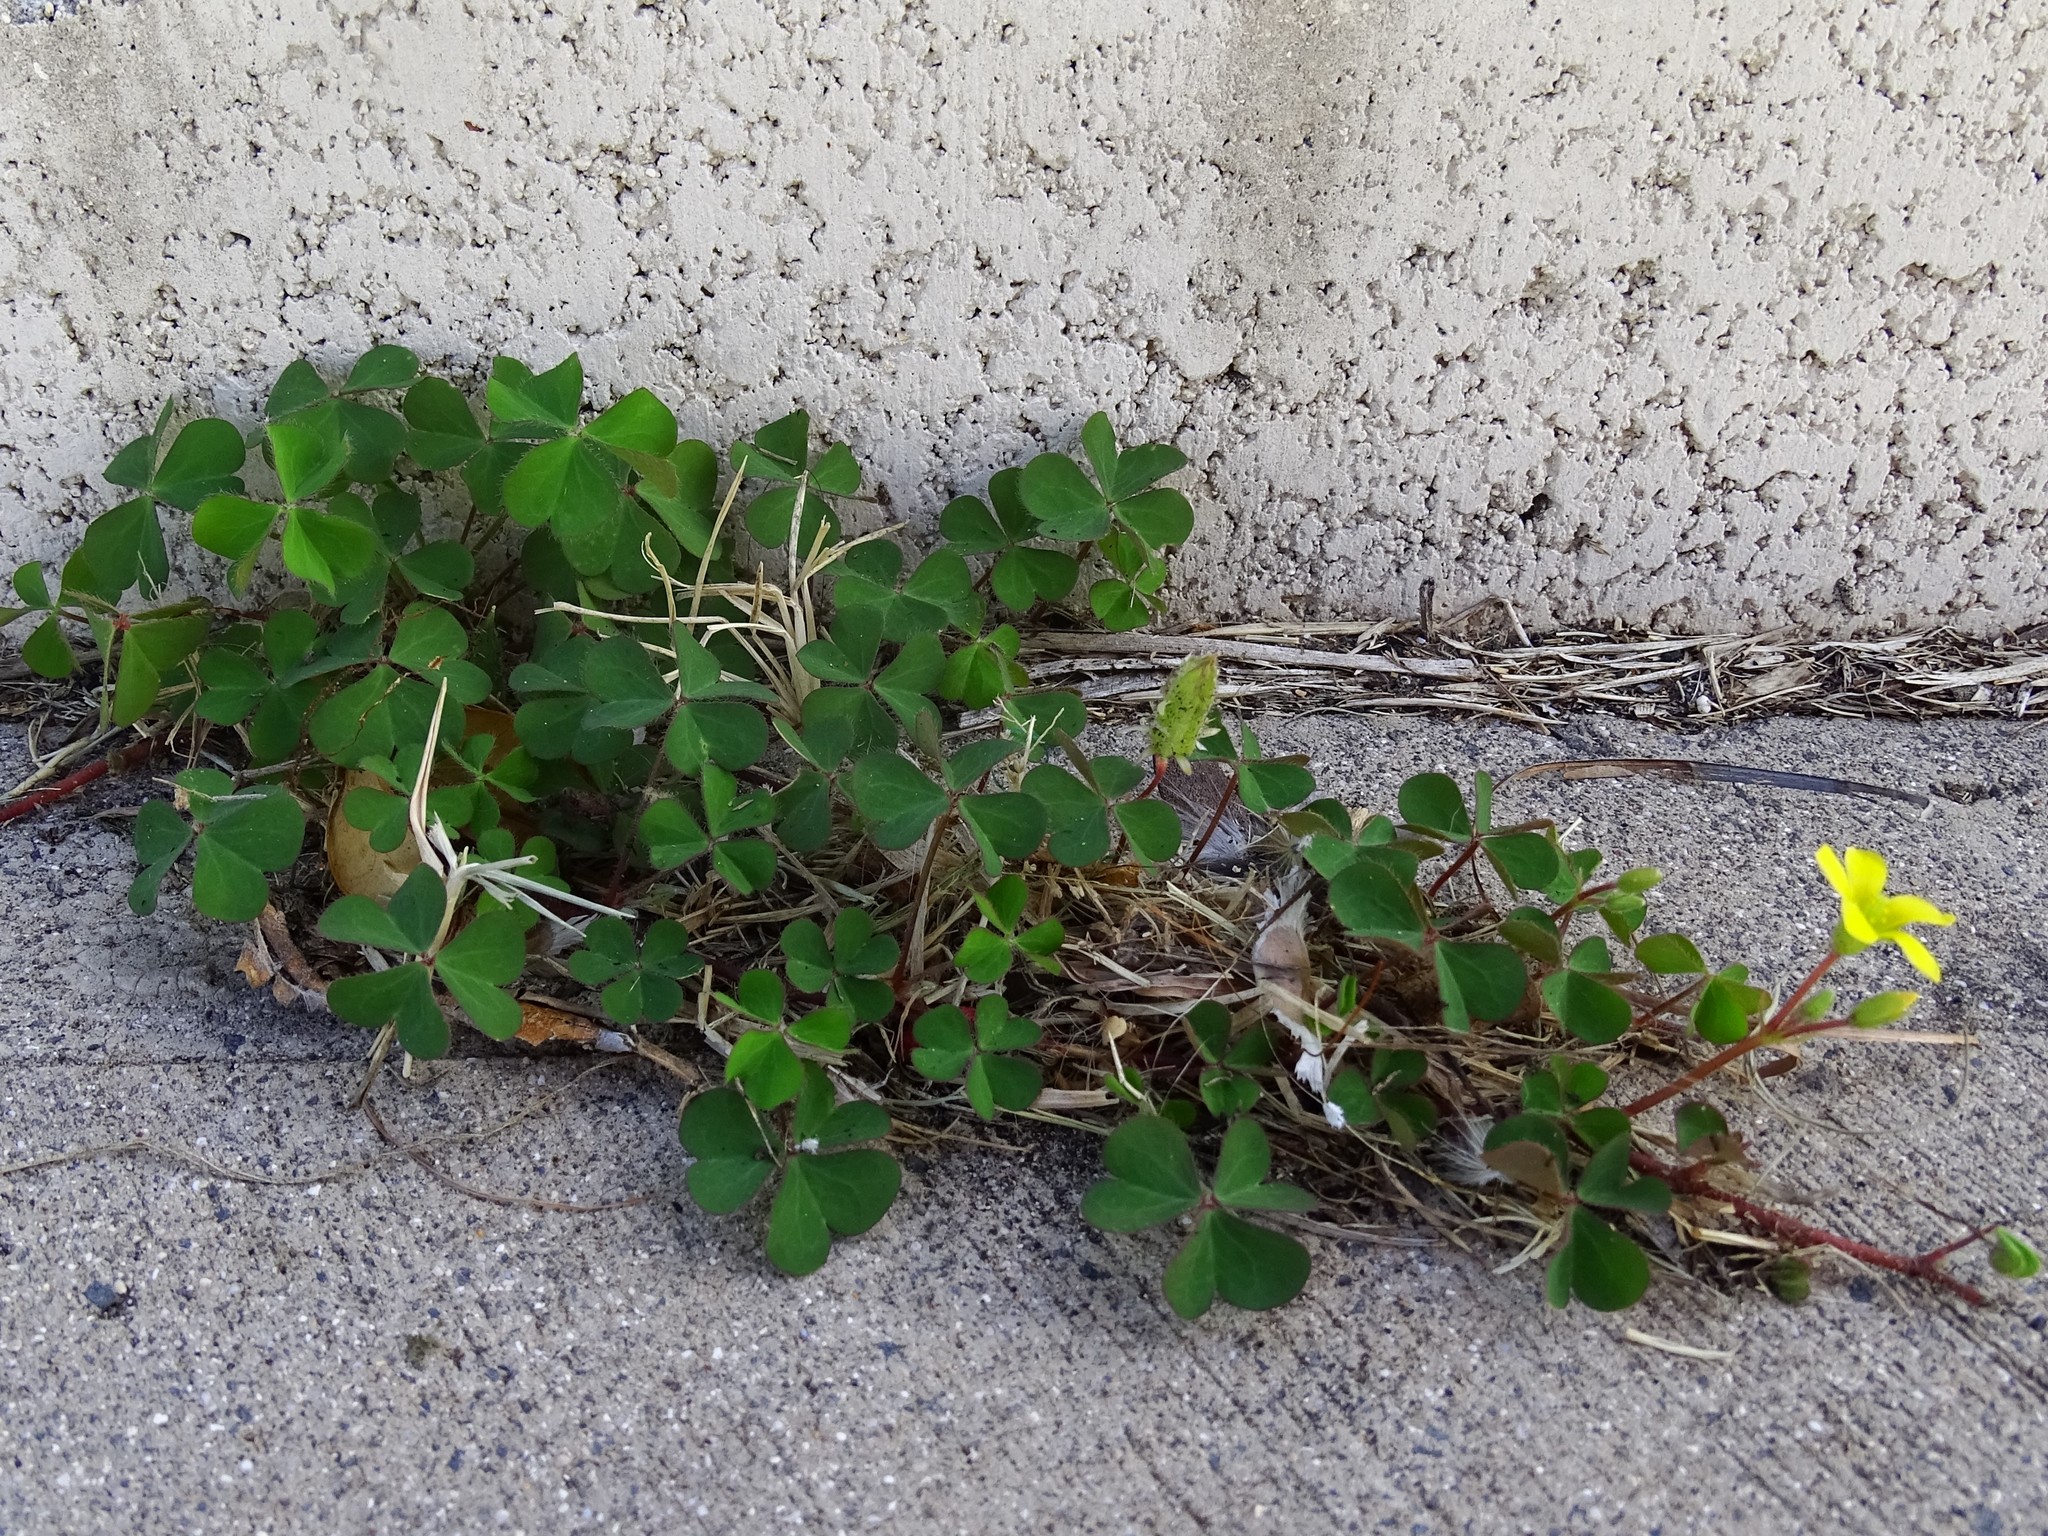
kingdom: Plantae
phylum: Tracheophyta
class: Magnoliopsida
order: Oxalidales
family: Oxalidaceae
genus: Oxalis
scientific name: Oxalis corniculata
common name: Procumbent yellow-sorrel
